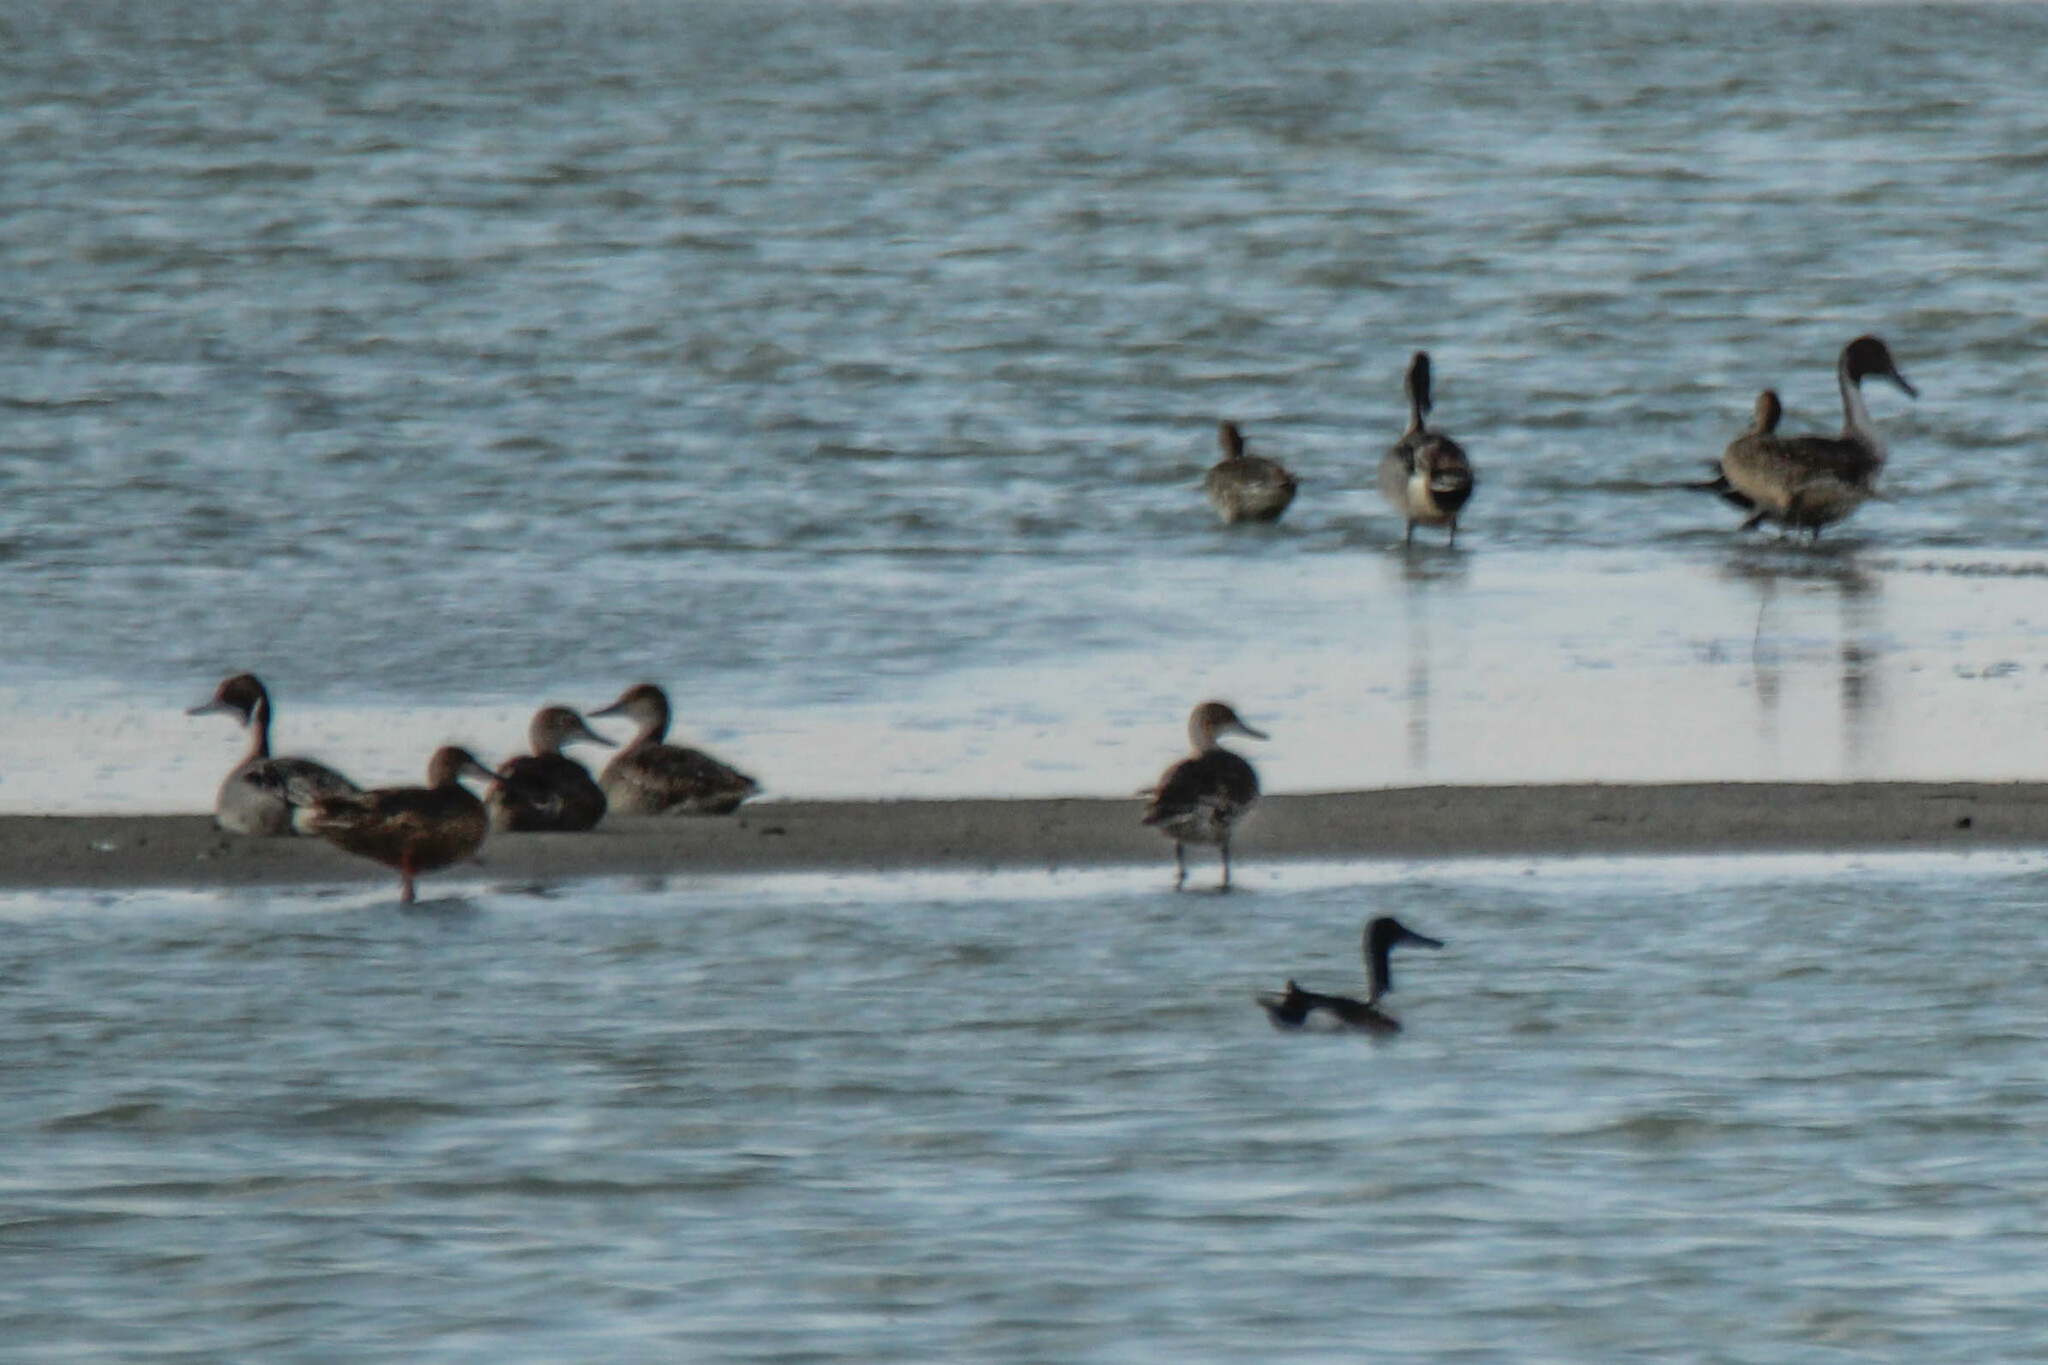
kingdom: Animalia
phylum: Chordata
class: Aves
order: Anseriformes
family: Anatidae
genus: Anas
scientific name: Anas acuta
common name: Northern pintail
